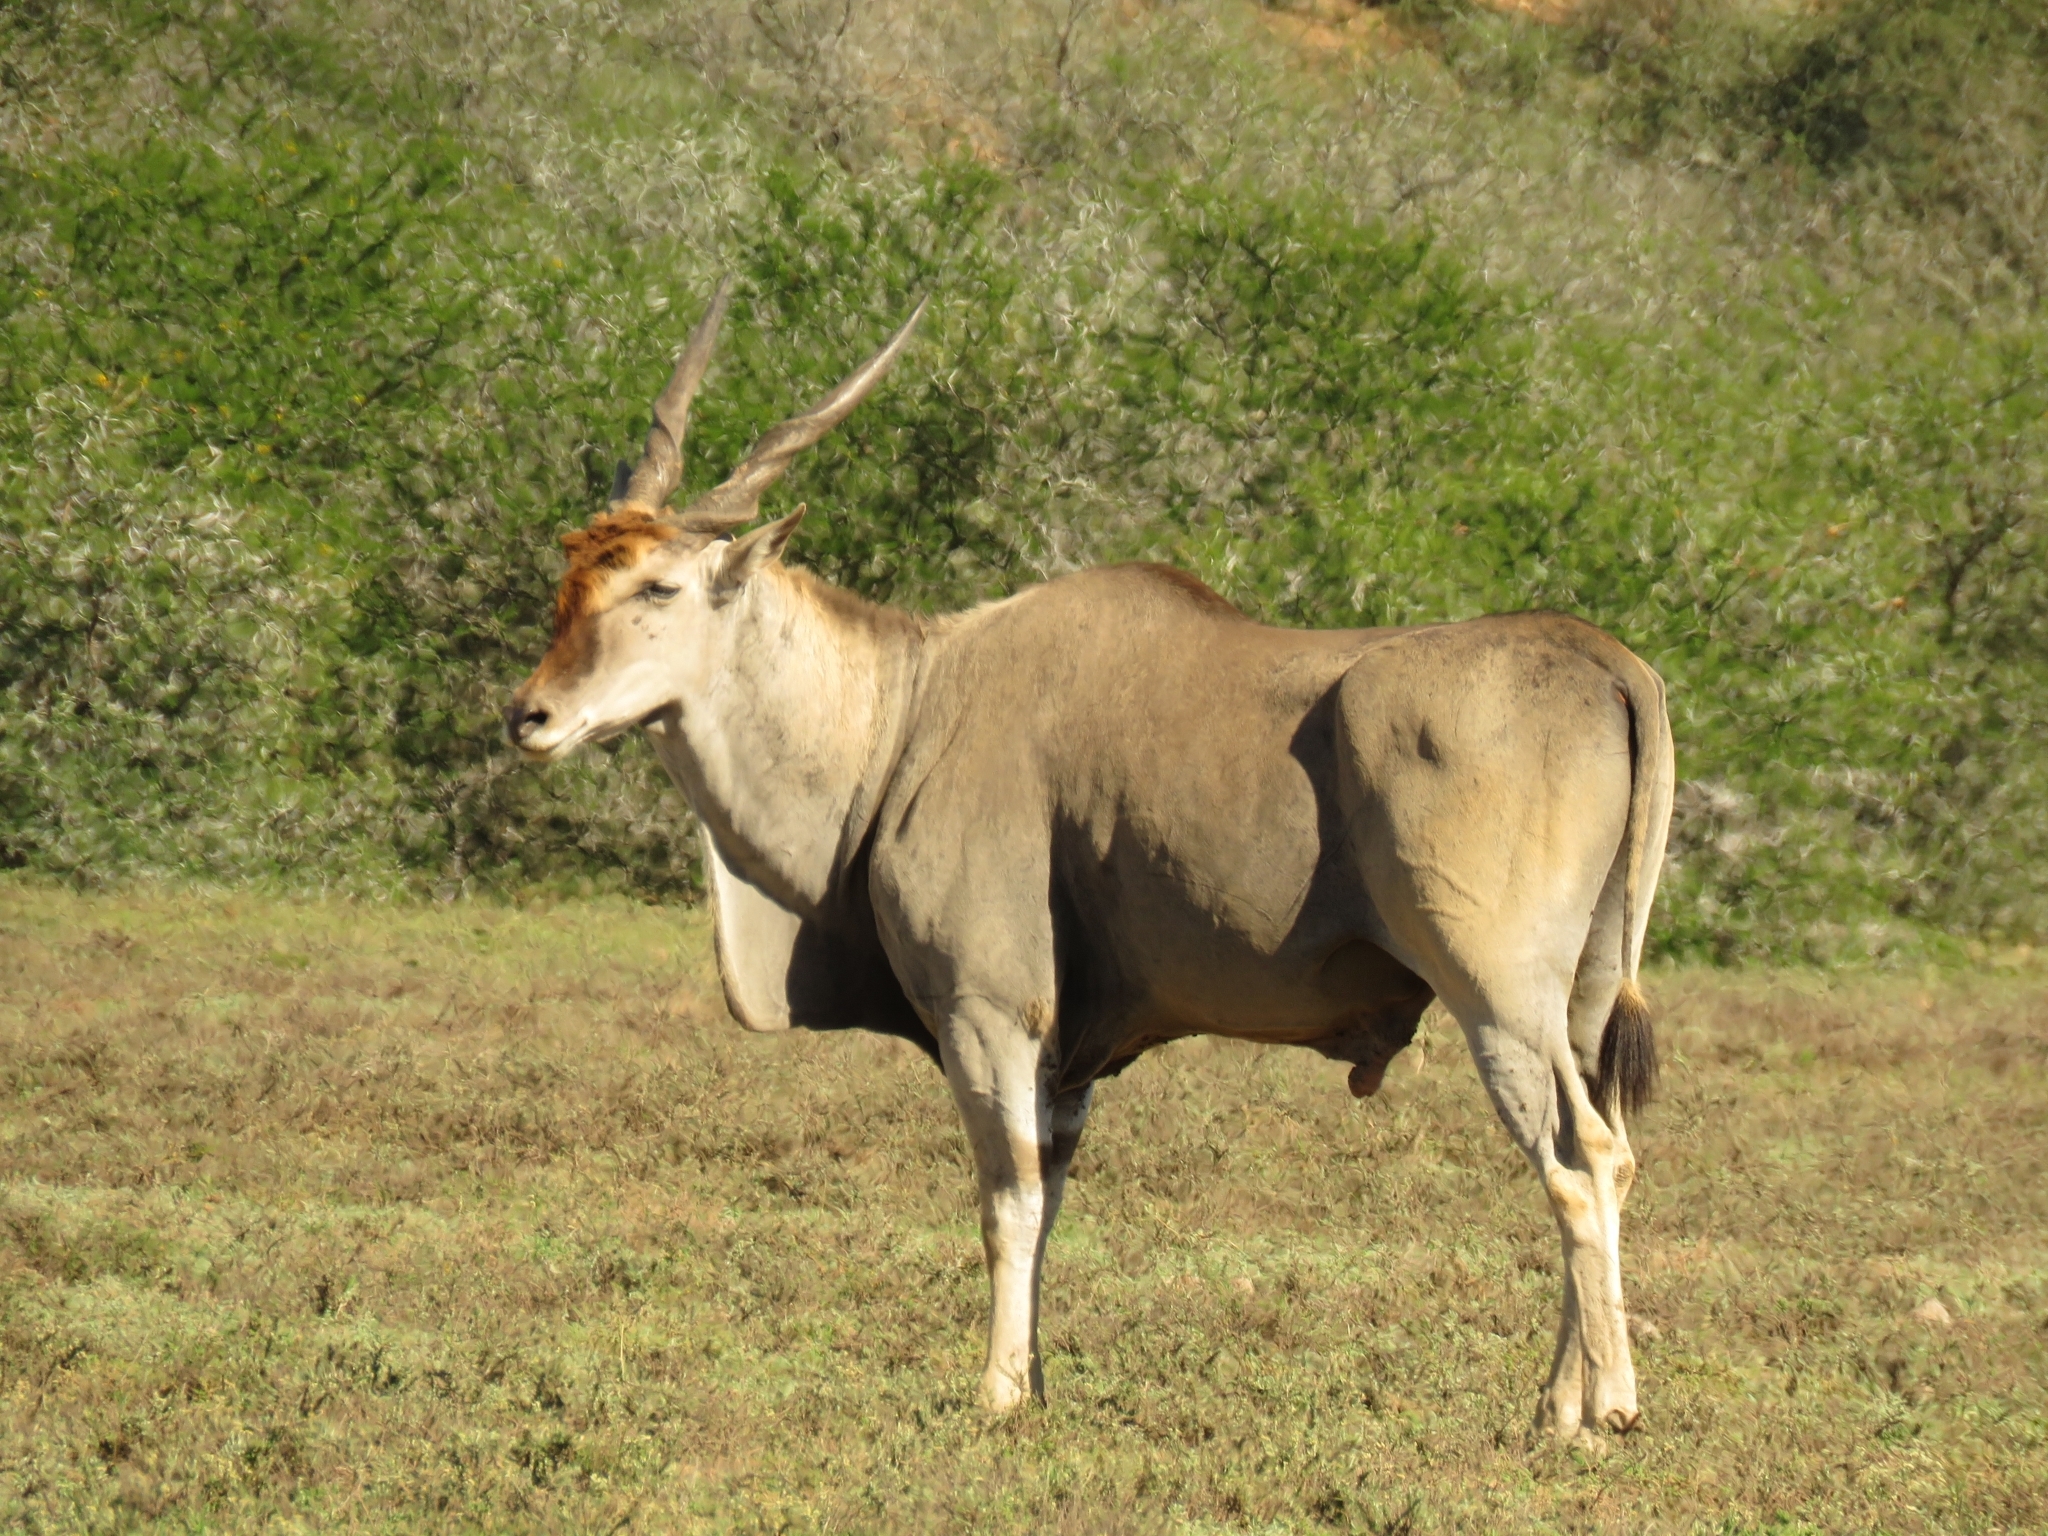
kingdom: Animalia
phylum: Chordata
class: Mammalia
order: Artiodactyla
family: Bovidae
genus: Taurotragus
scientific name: Taurotragus oryx
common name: Common eland
